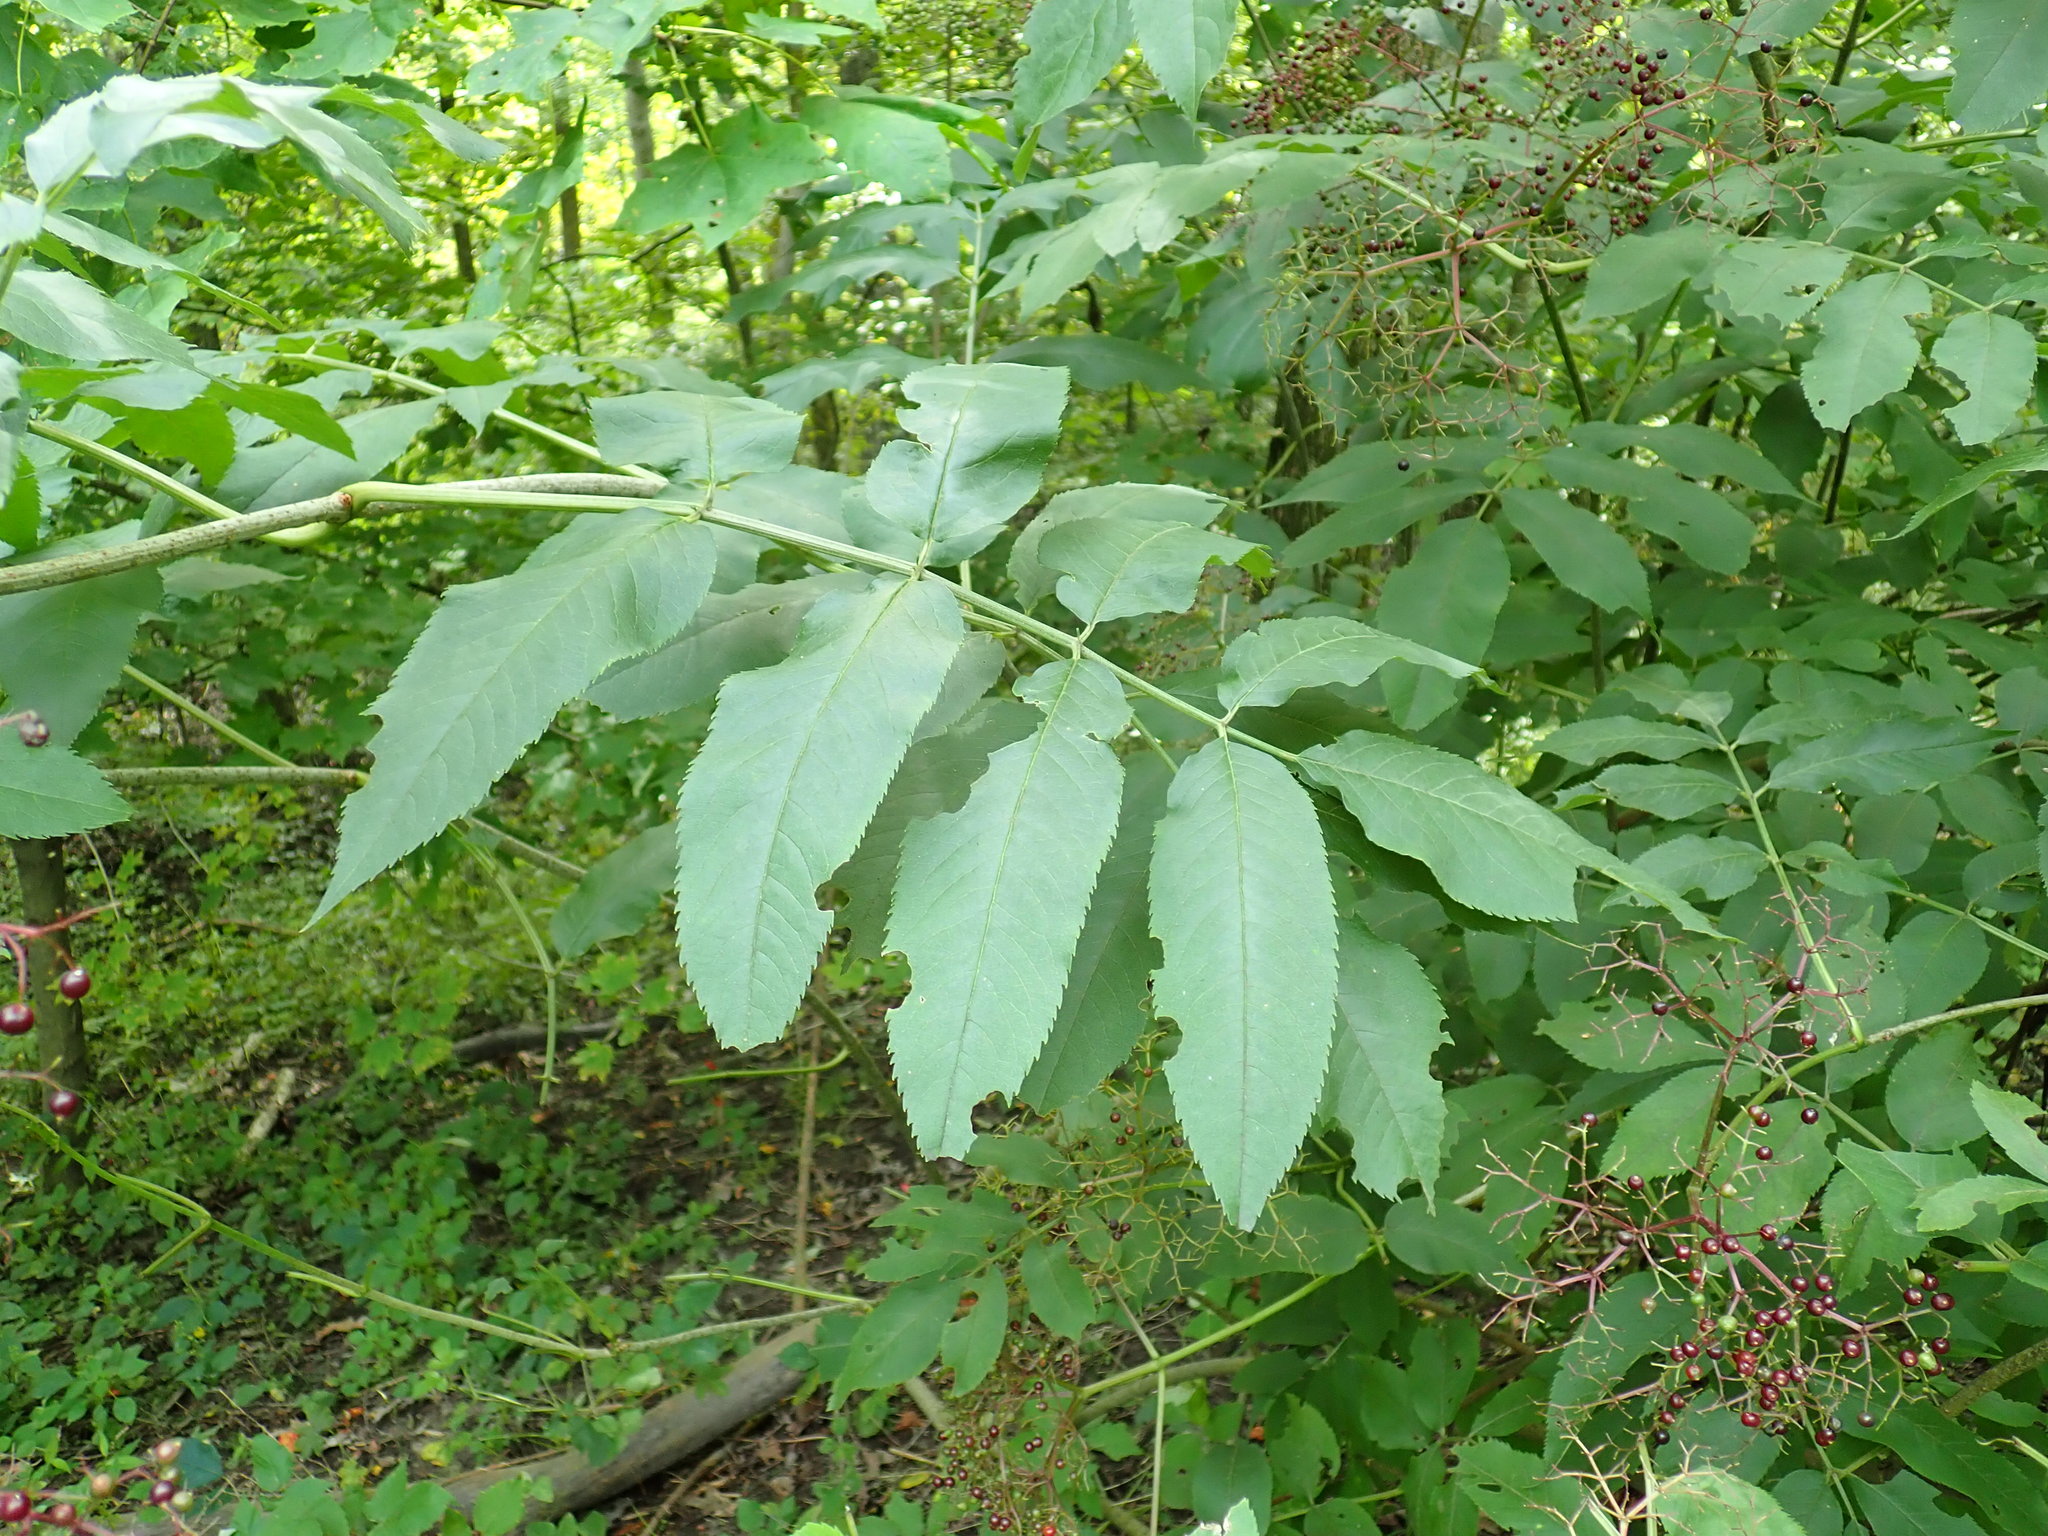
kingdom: Plantae
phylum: Tracheophyta
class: Magnoliopsida
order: Dipsacales
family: Viburnaceae
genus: Sambucus
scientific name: Sambucus canadensis
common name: American elder
